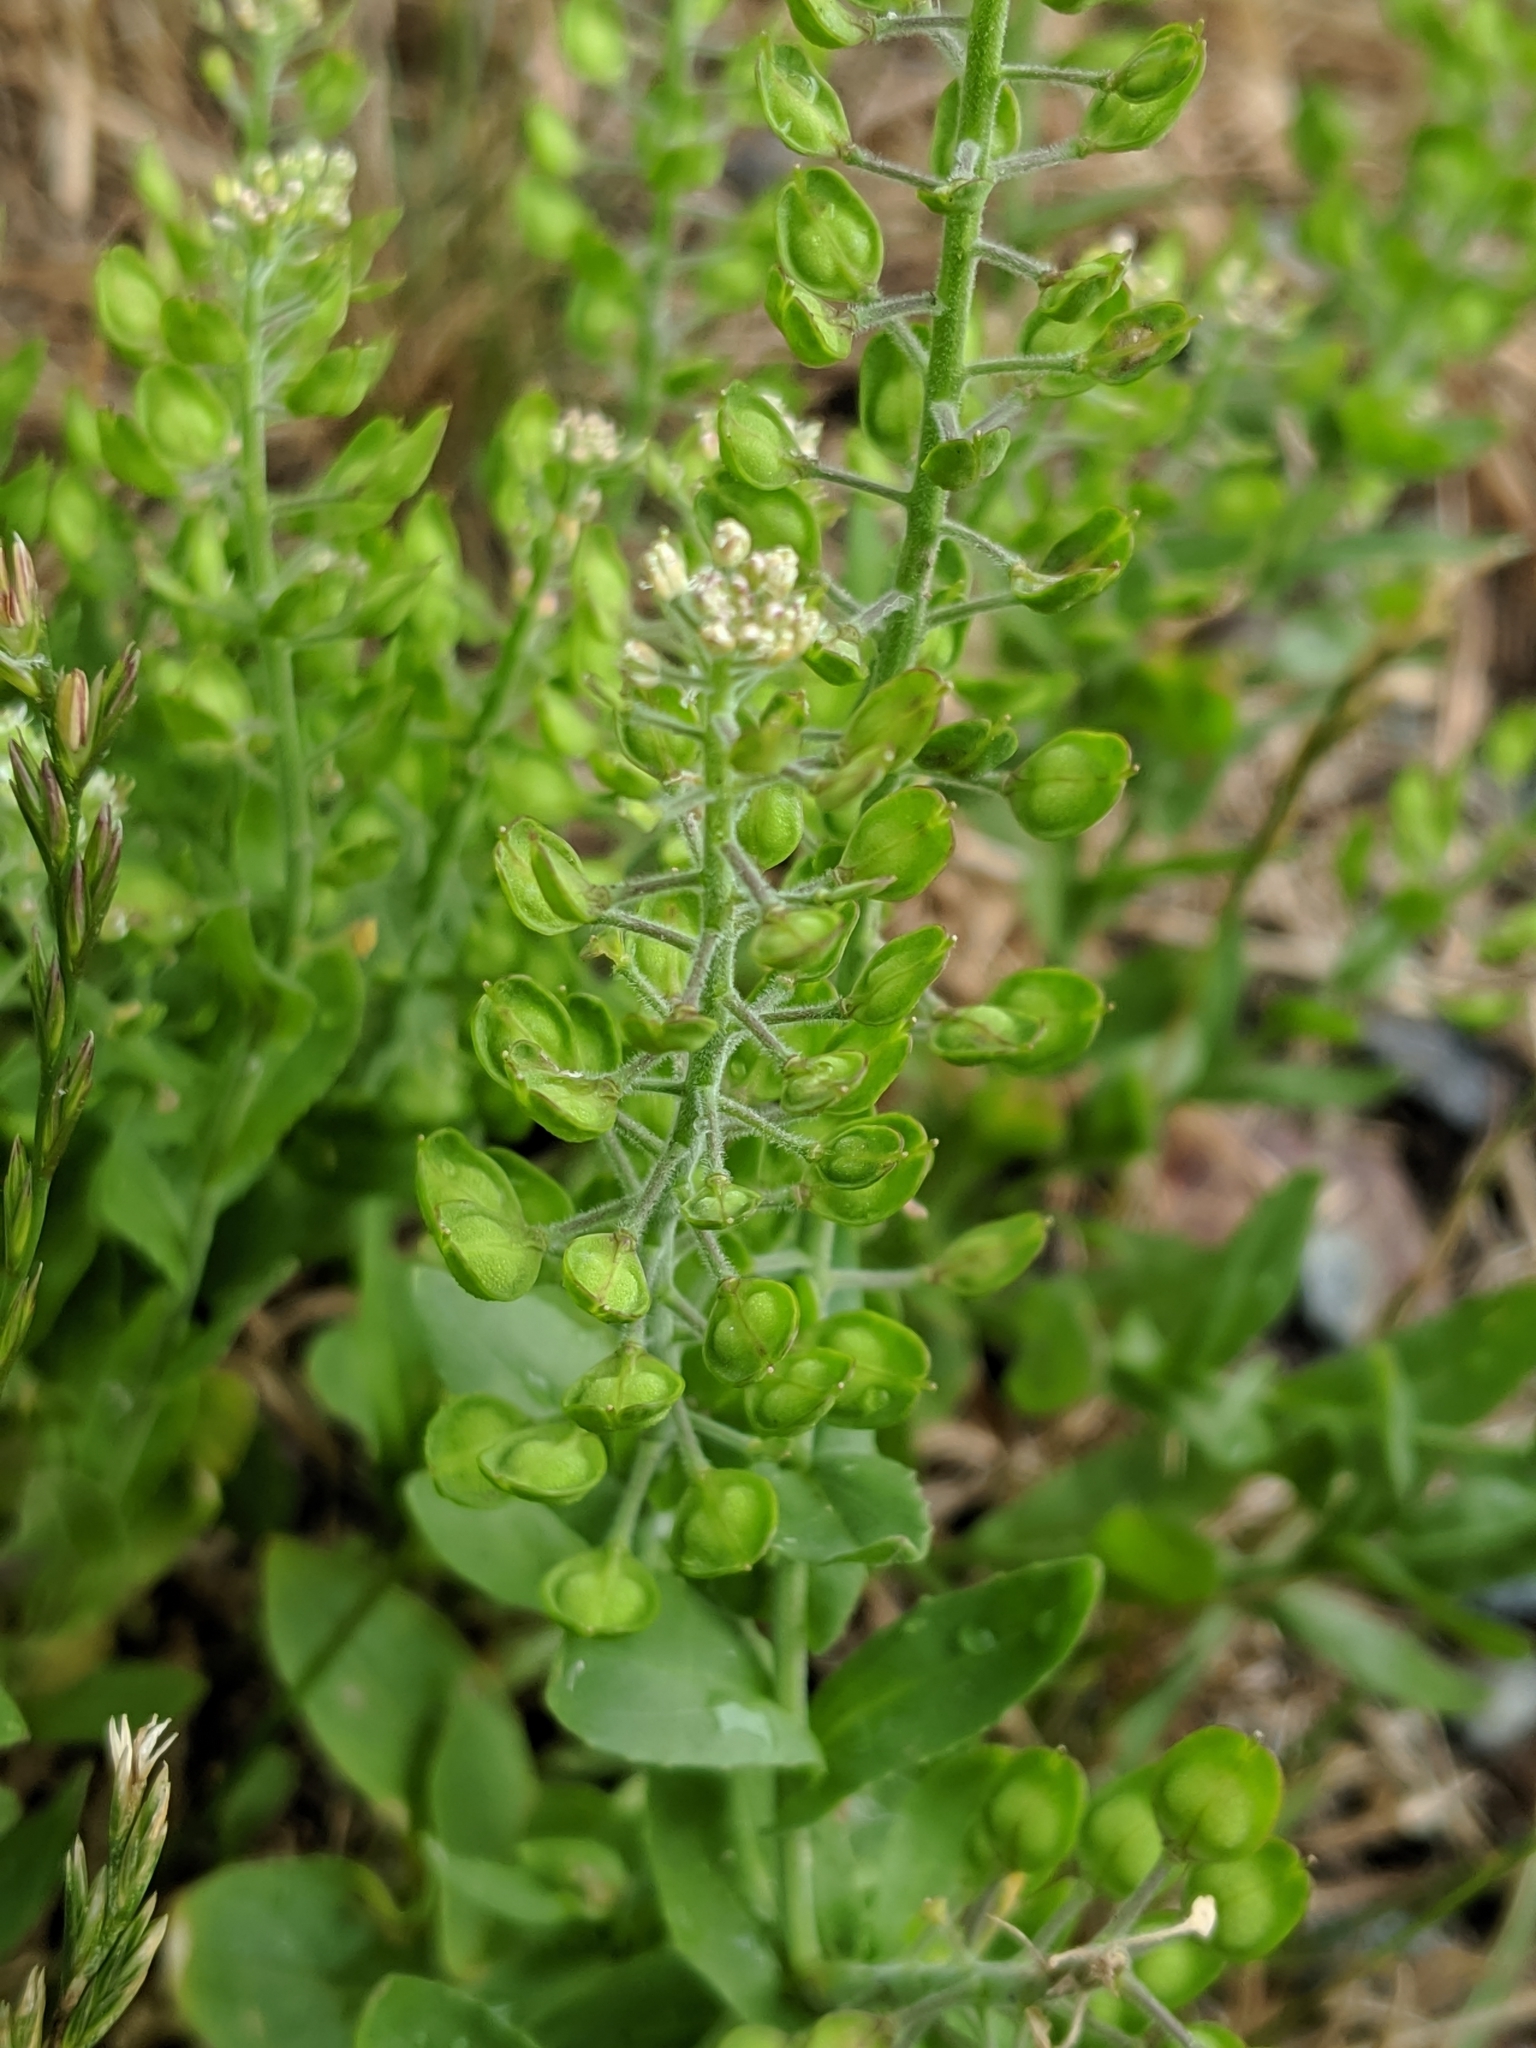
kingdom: Plantae
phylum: Tracheophyta
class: Magnoliopsida
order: Brassicales
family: Brassicaceae
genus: Lepidium
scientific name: Lepidium campestre
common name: Field pepperwort
